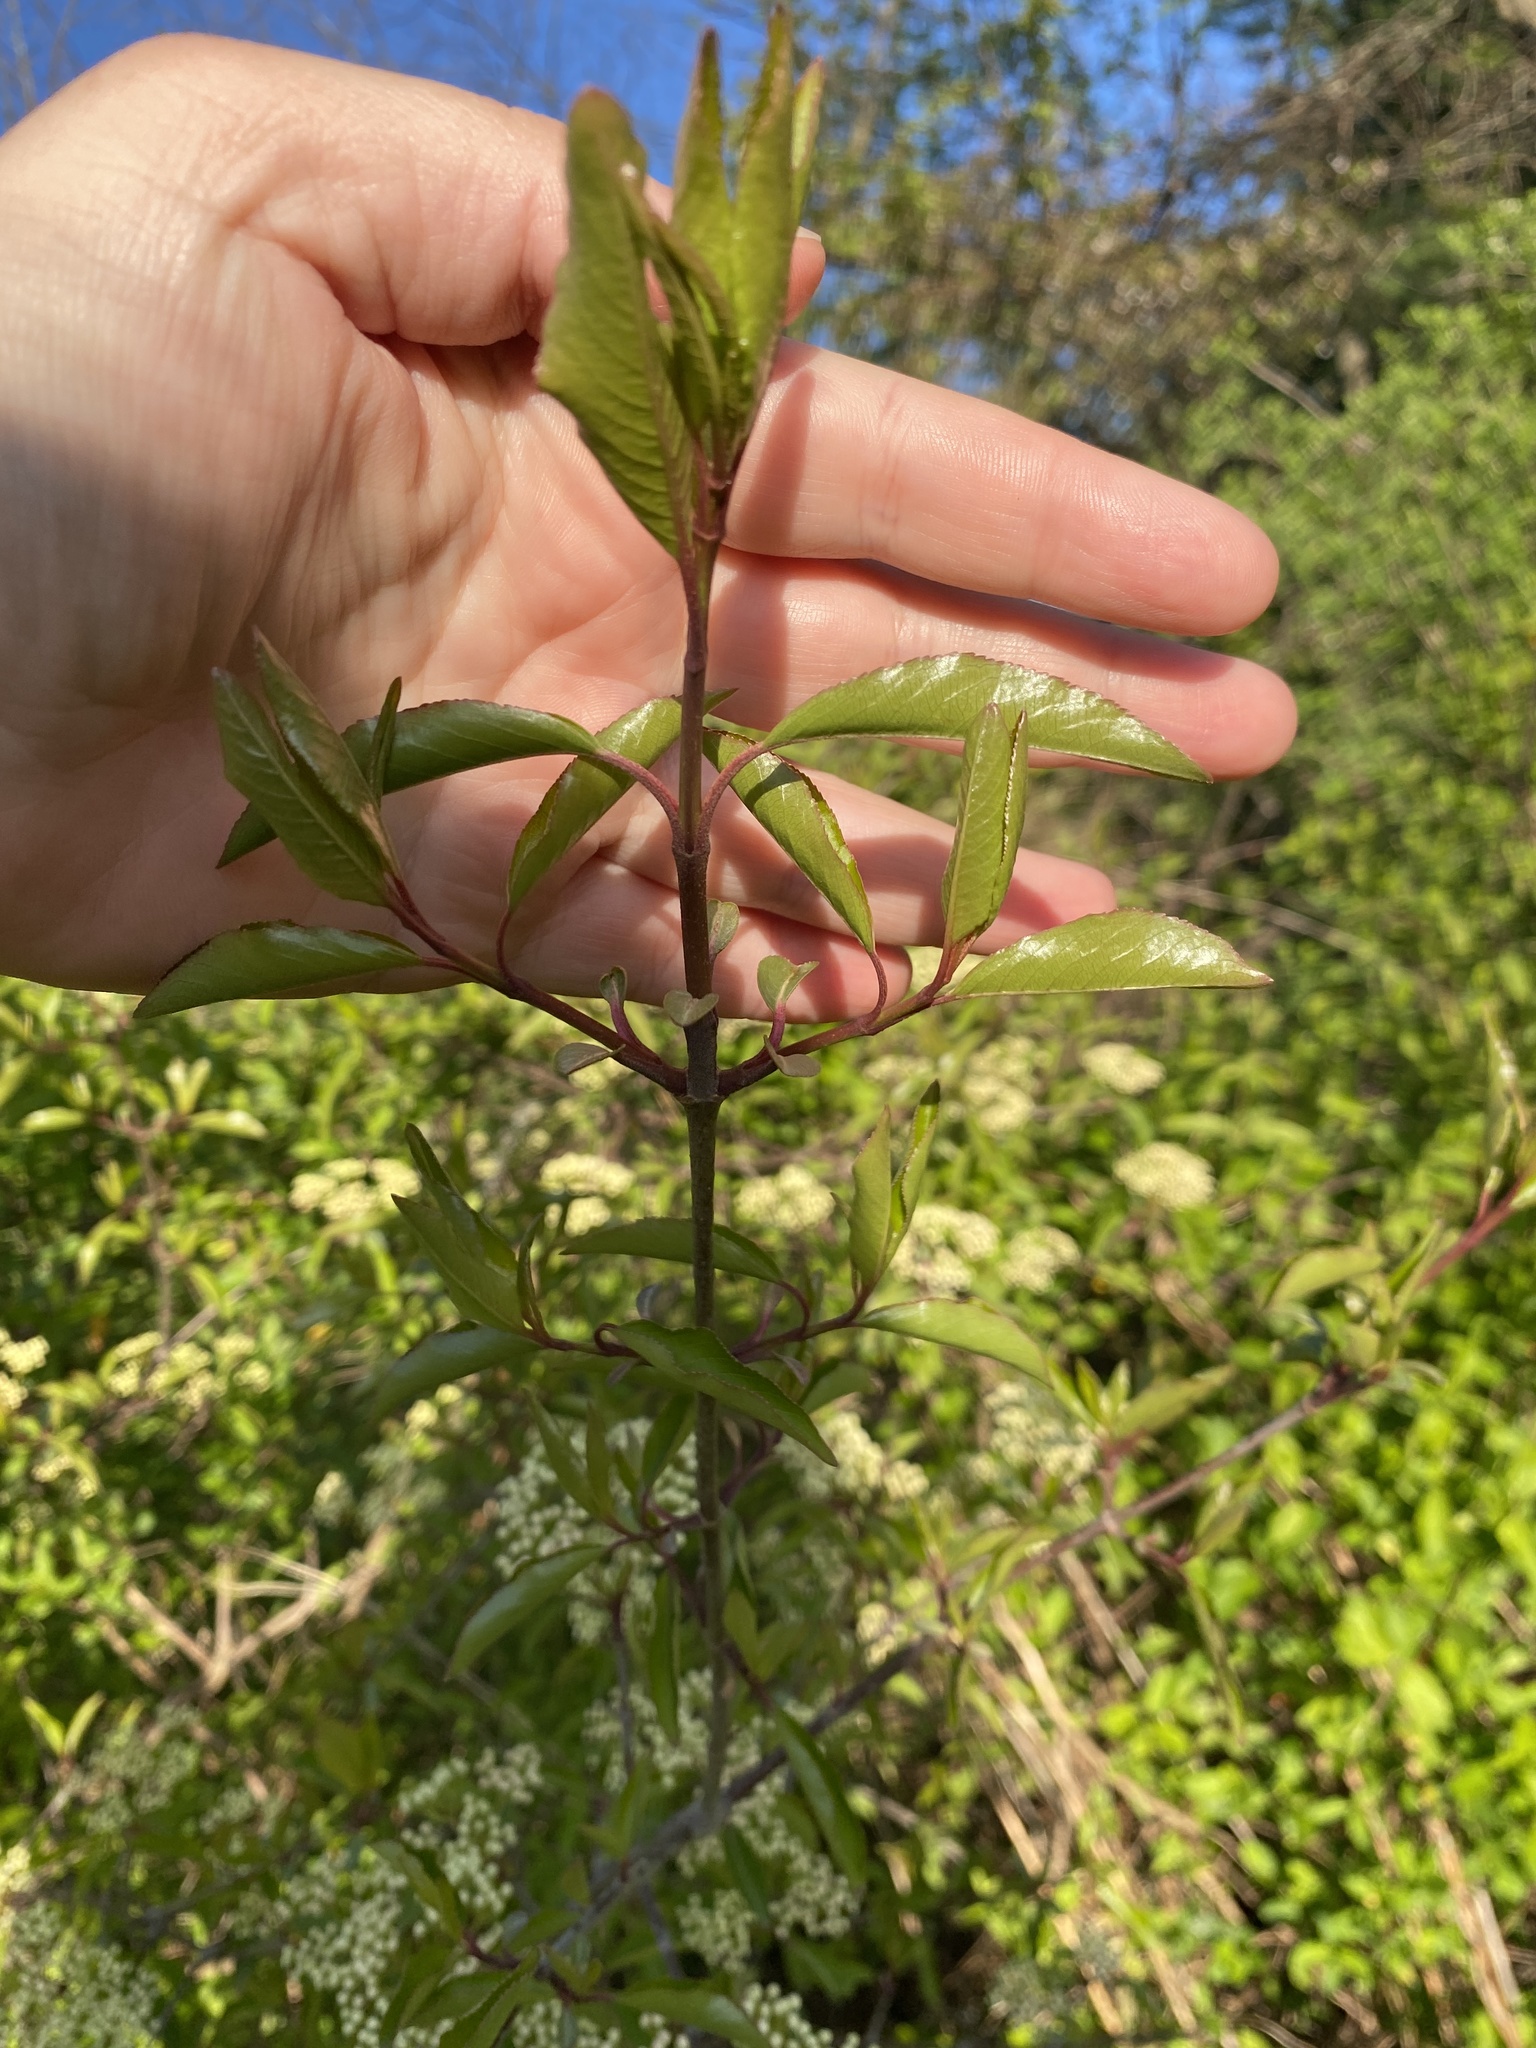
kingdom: Plantae
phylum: Tracheophyta
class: Magnoliopsida
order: Dipsacales
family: Viburnaceae
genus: Viburnum
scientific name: Viburnum prunifolium
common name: Black haw
